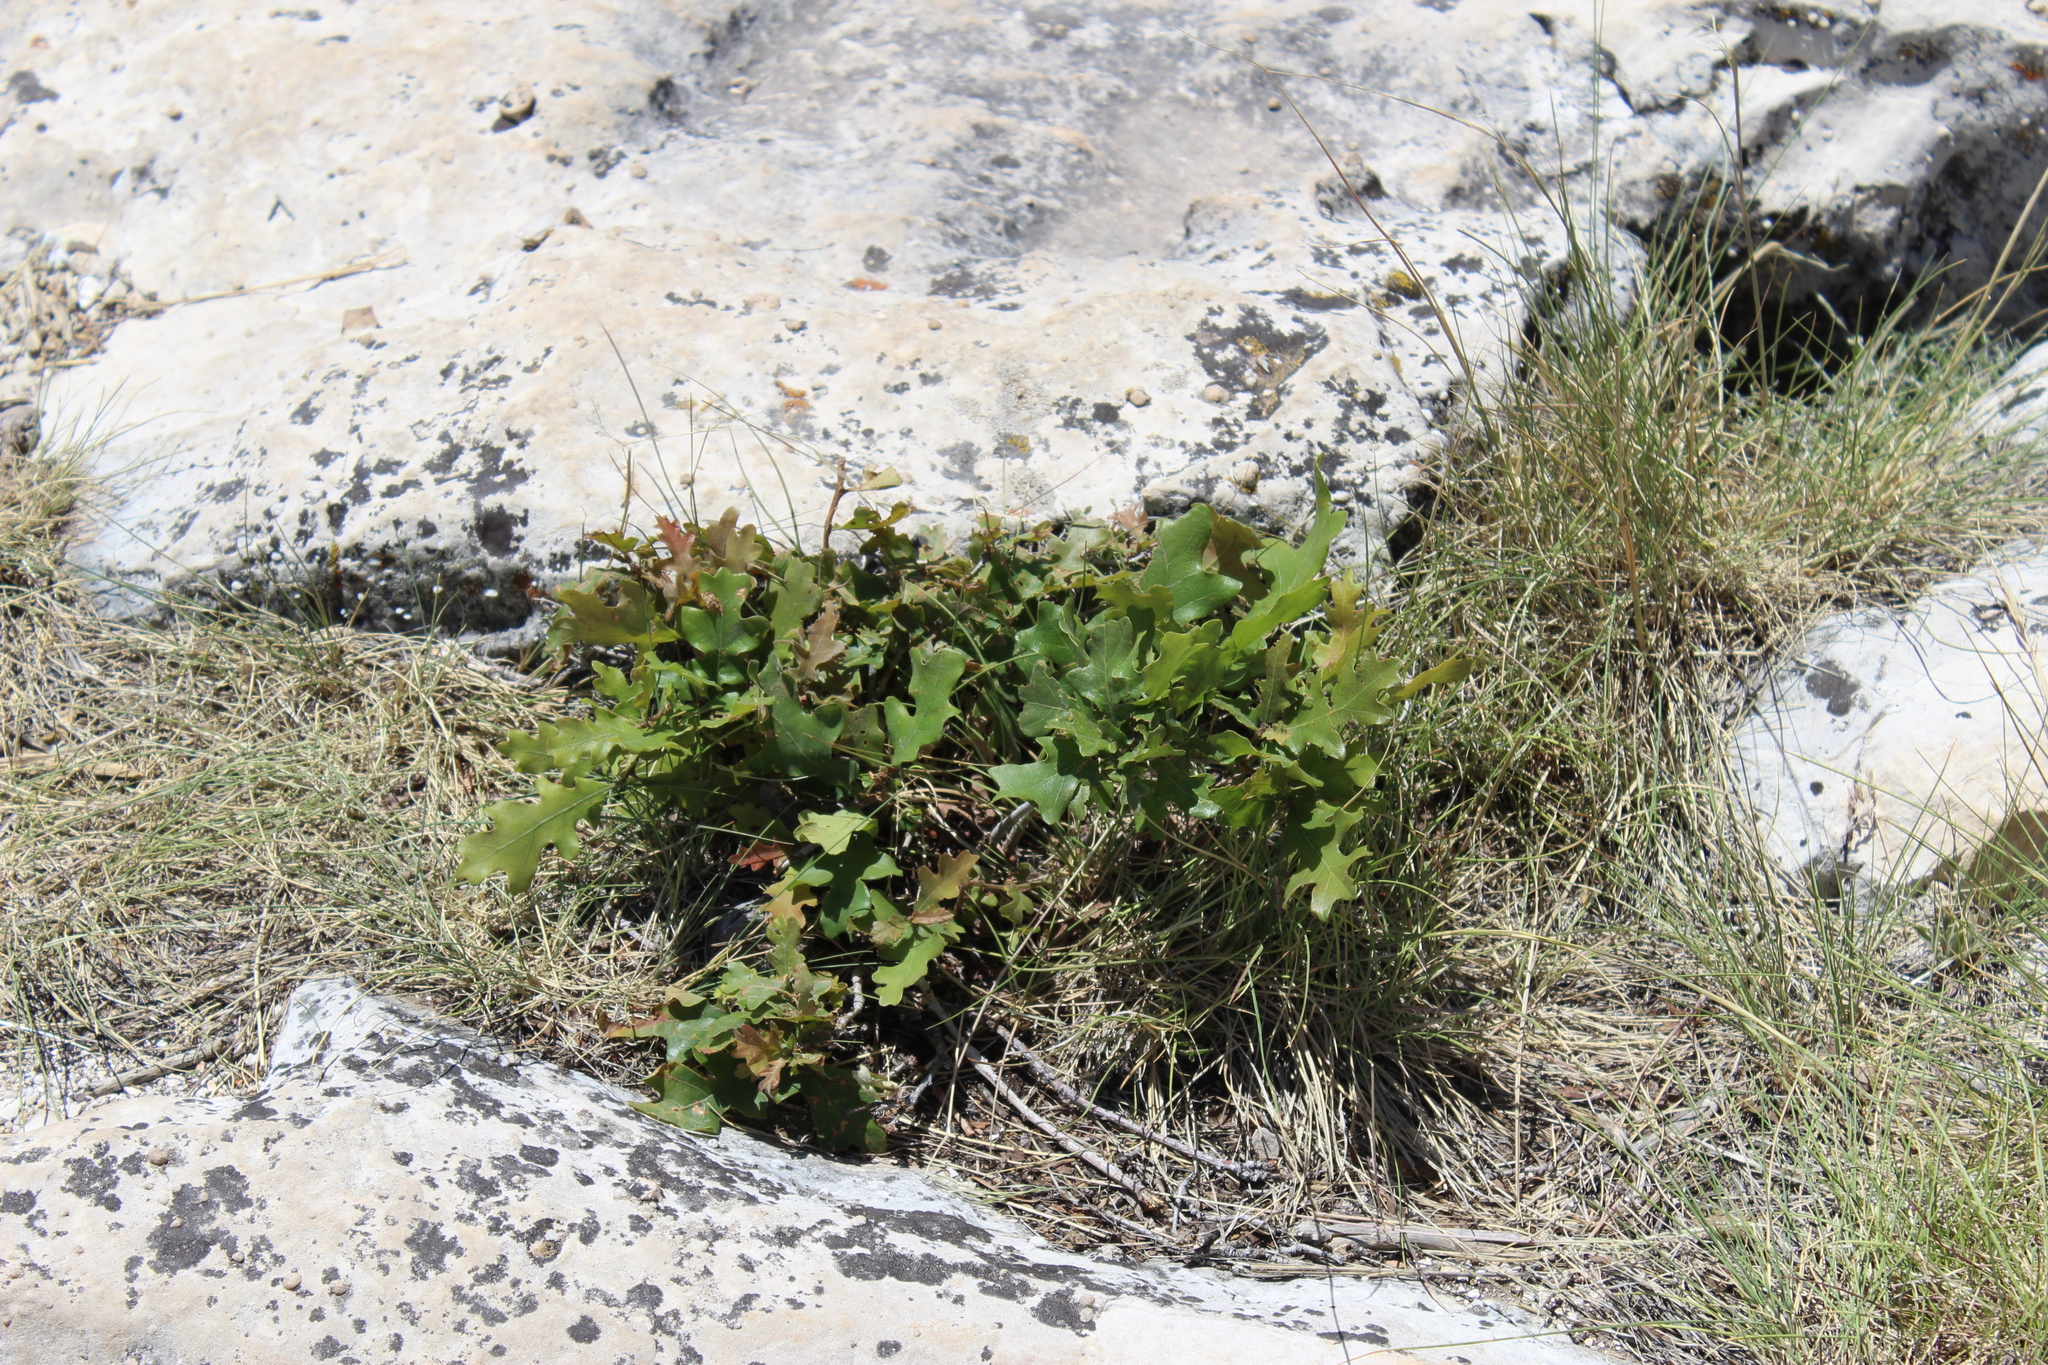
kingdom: Plantae
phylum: Tracheophyta
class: Magnoliopsida
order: Fagales
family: Fagaceae
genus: Quercus
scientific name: Quercus gambelii
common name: Gambel oak
